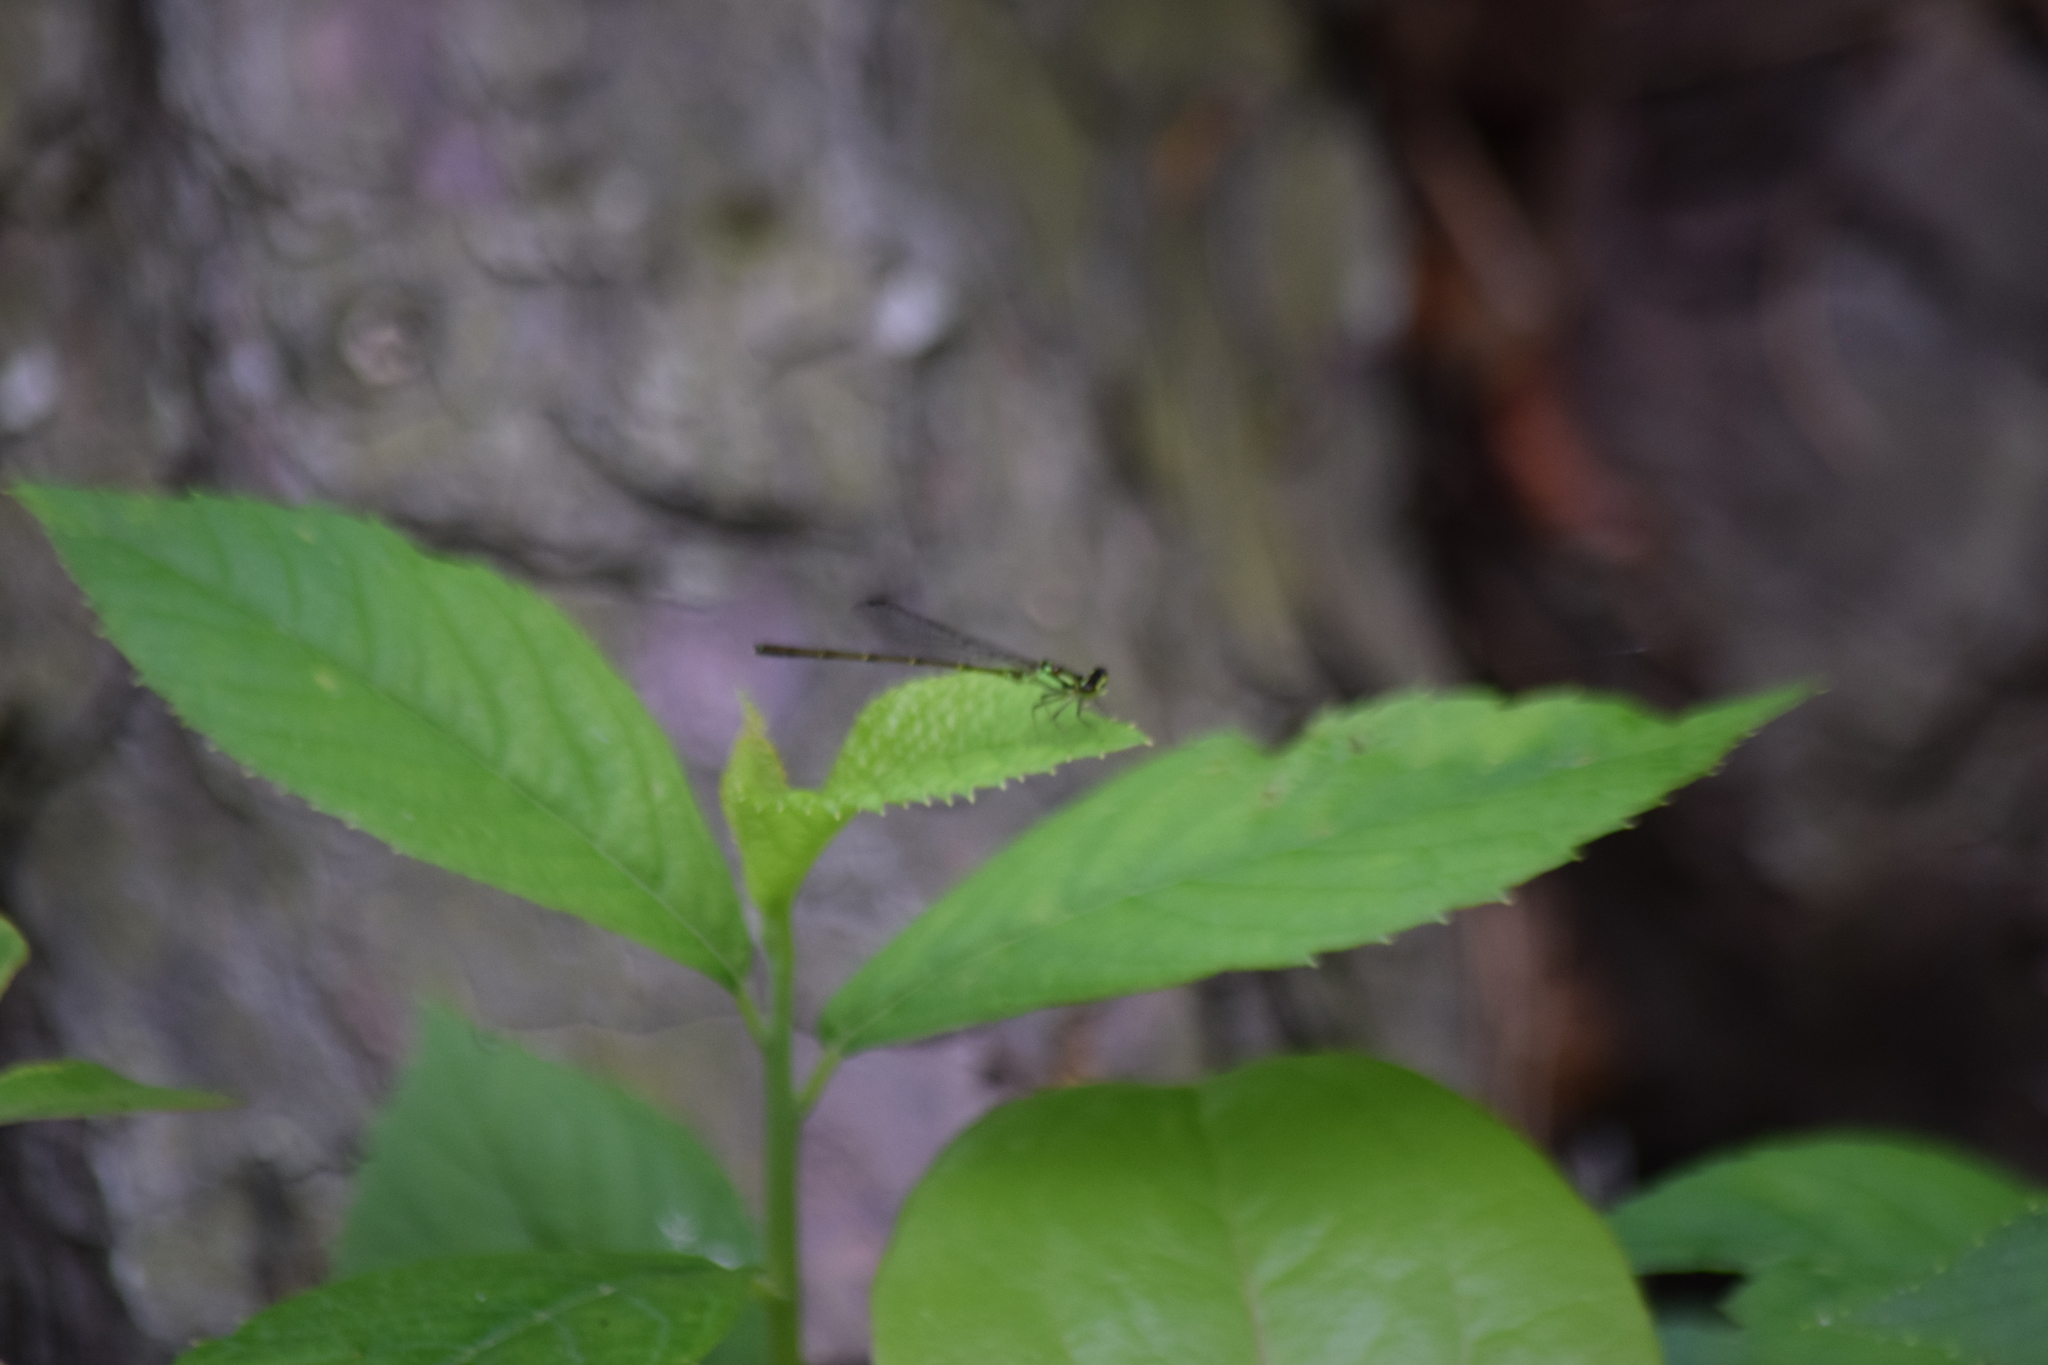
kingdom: Animalia
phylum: Arthropoda
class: Insecta
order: Odonata
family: Coenagrionidae
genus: Ischnura
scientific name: Ischnura posita
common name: Fragile forktail
